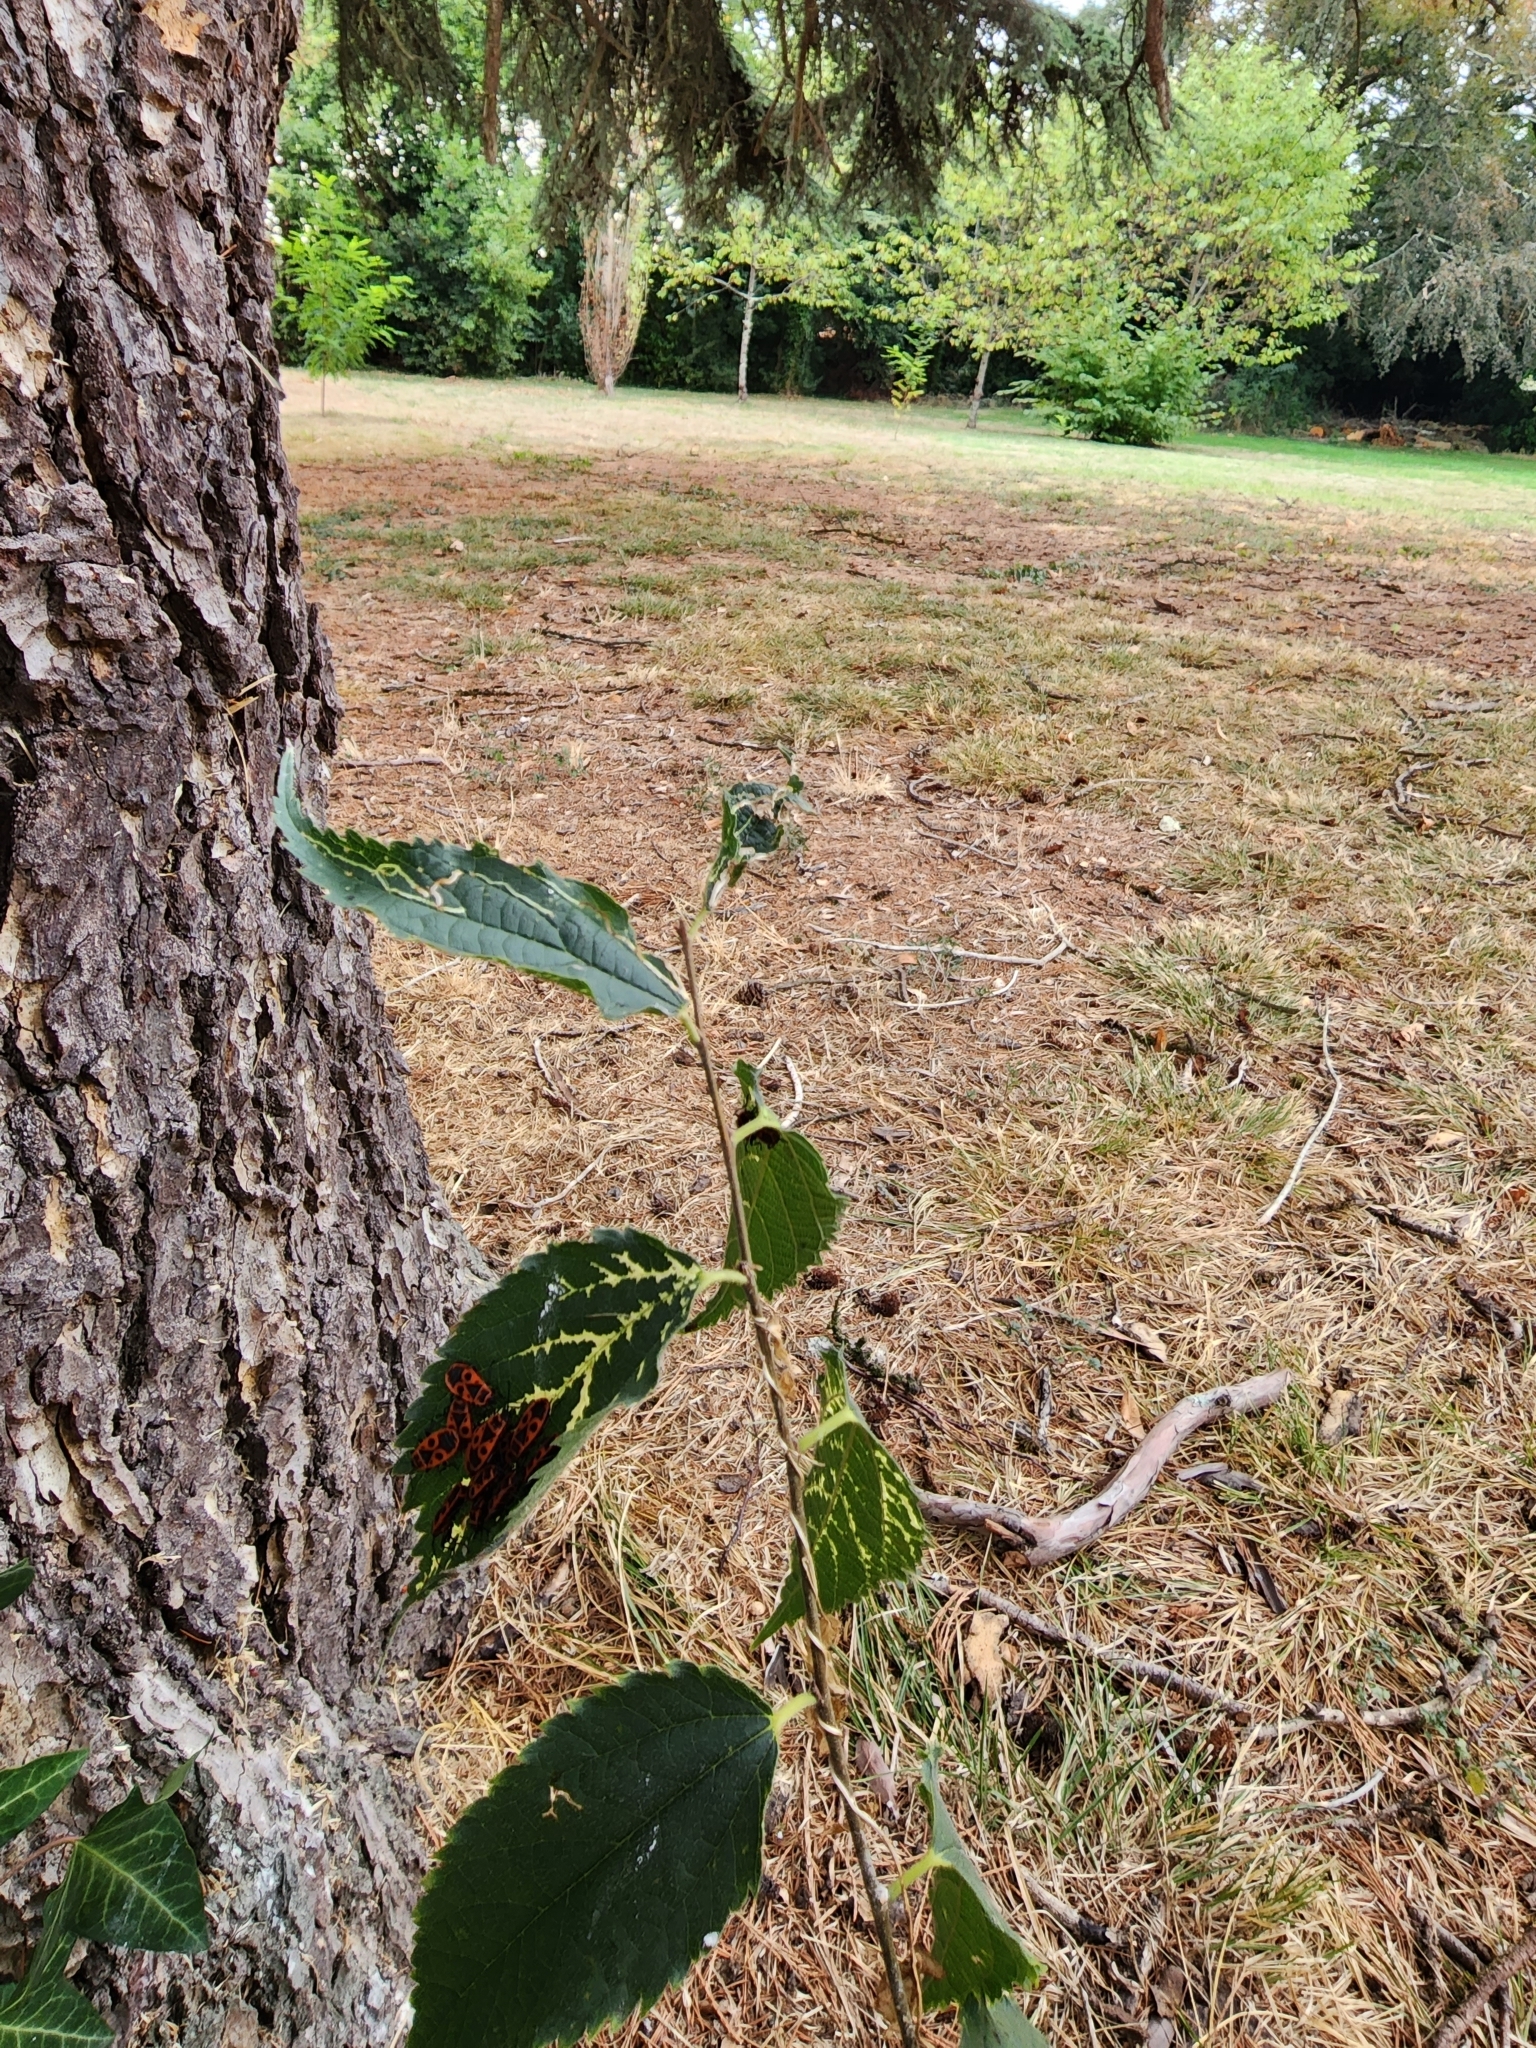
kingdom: Animalia
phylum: Arthropoda
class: Insecta
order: Hemiptera
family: Pyrrhocoridae
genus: Pyrrhocoris
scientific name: Pyrrhocoris apterus
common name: Firebug
